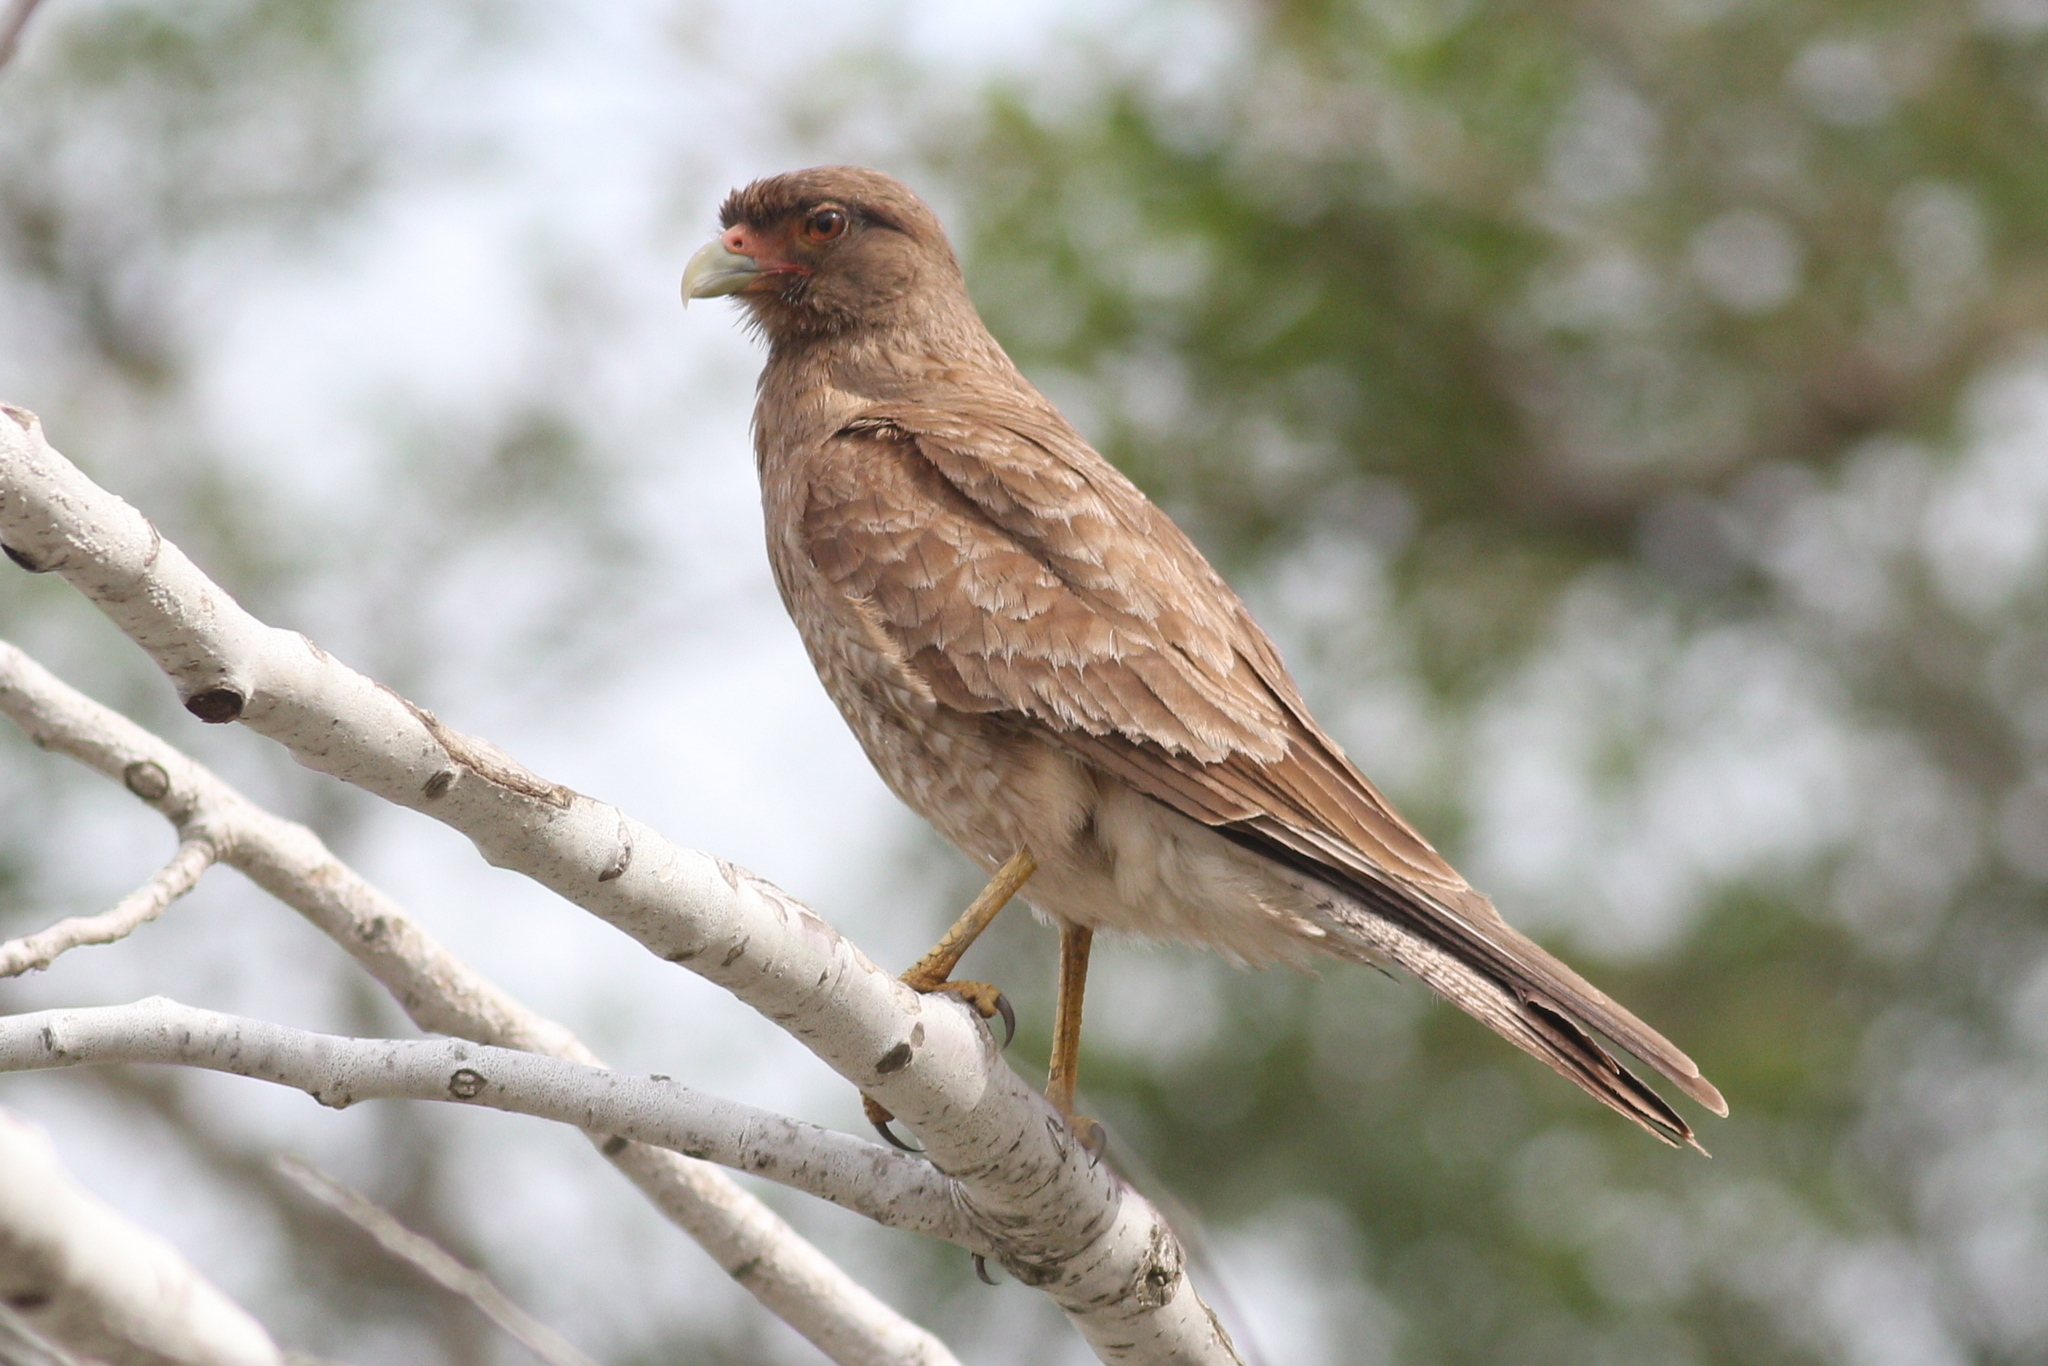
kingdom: Animalia
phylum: Chordata
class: Aves
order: Falconiformes
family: Falconidae
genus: Daptrius
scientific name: Daptrius
